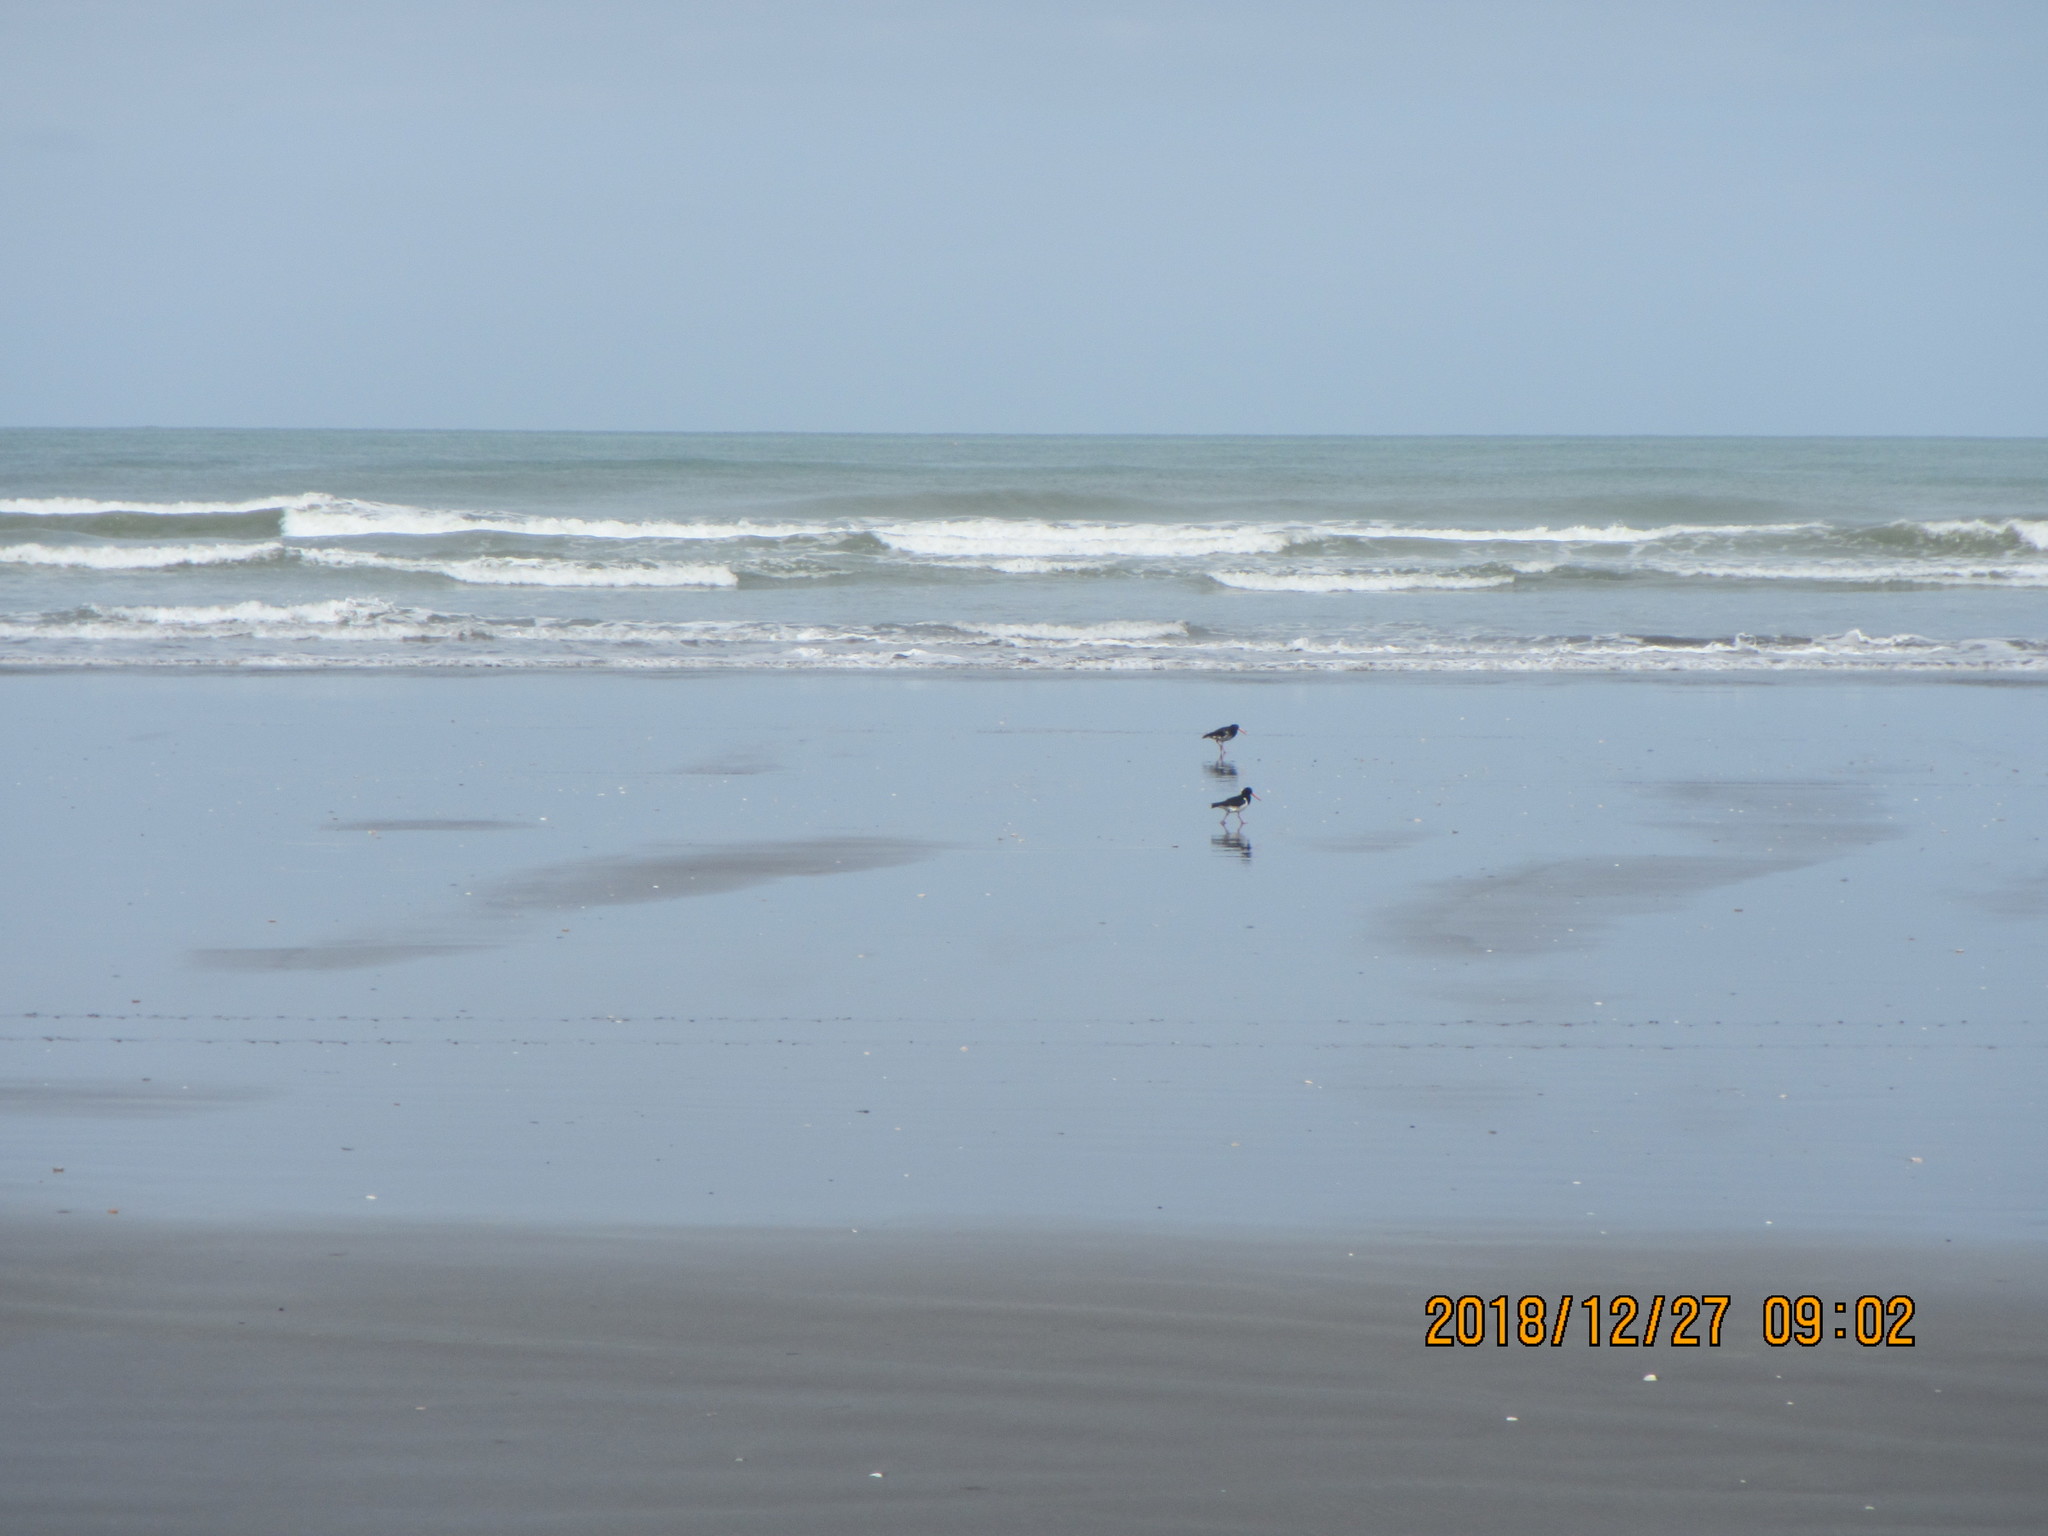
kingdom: Animalia
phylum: Chordata
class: Aves
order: Charadriiformes
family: Haematopodidae
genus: Haematopus
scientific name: Haematopus finschi
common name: South island oystercatcher
